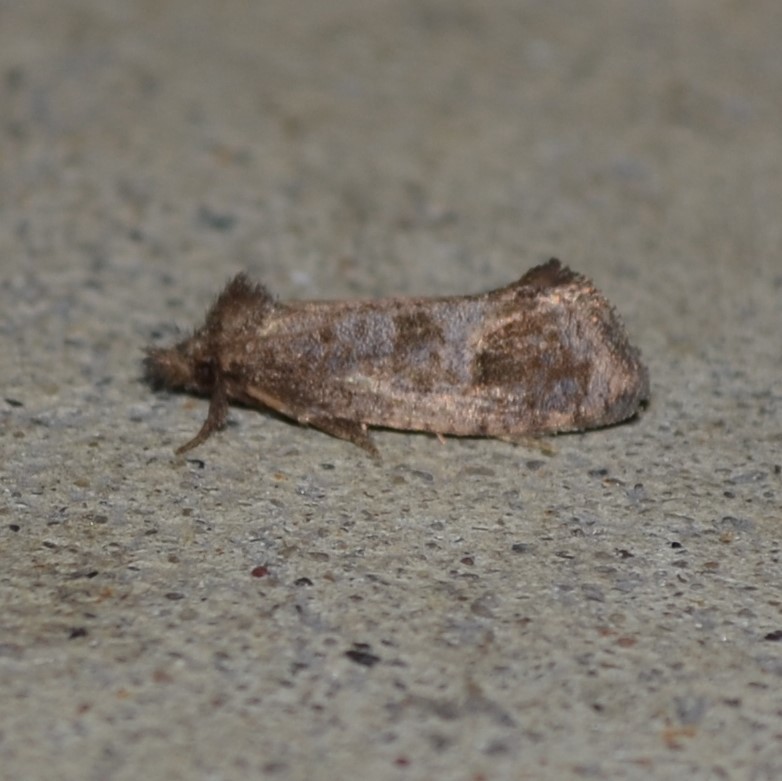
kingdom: Animalia
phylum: Arthropoda
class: Insecta
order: Lepidoptera
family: Tineidae
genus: Acrolophus
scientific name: Acrolophus texanella
